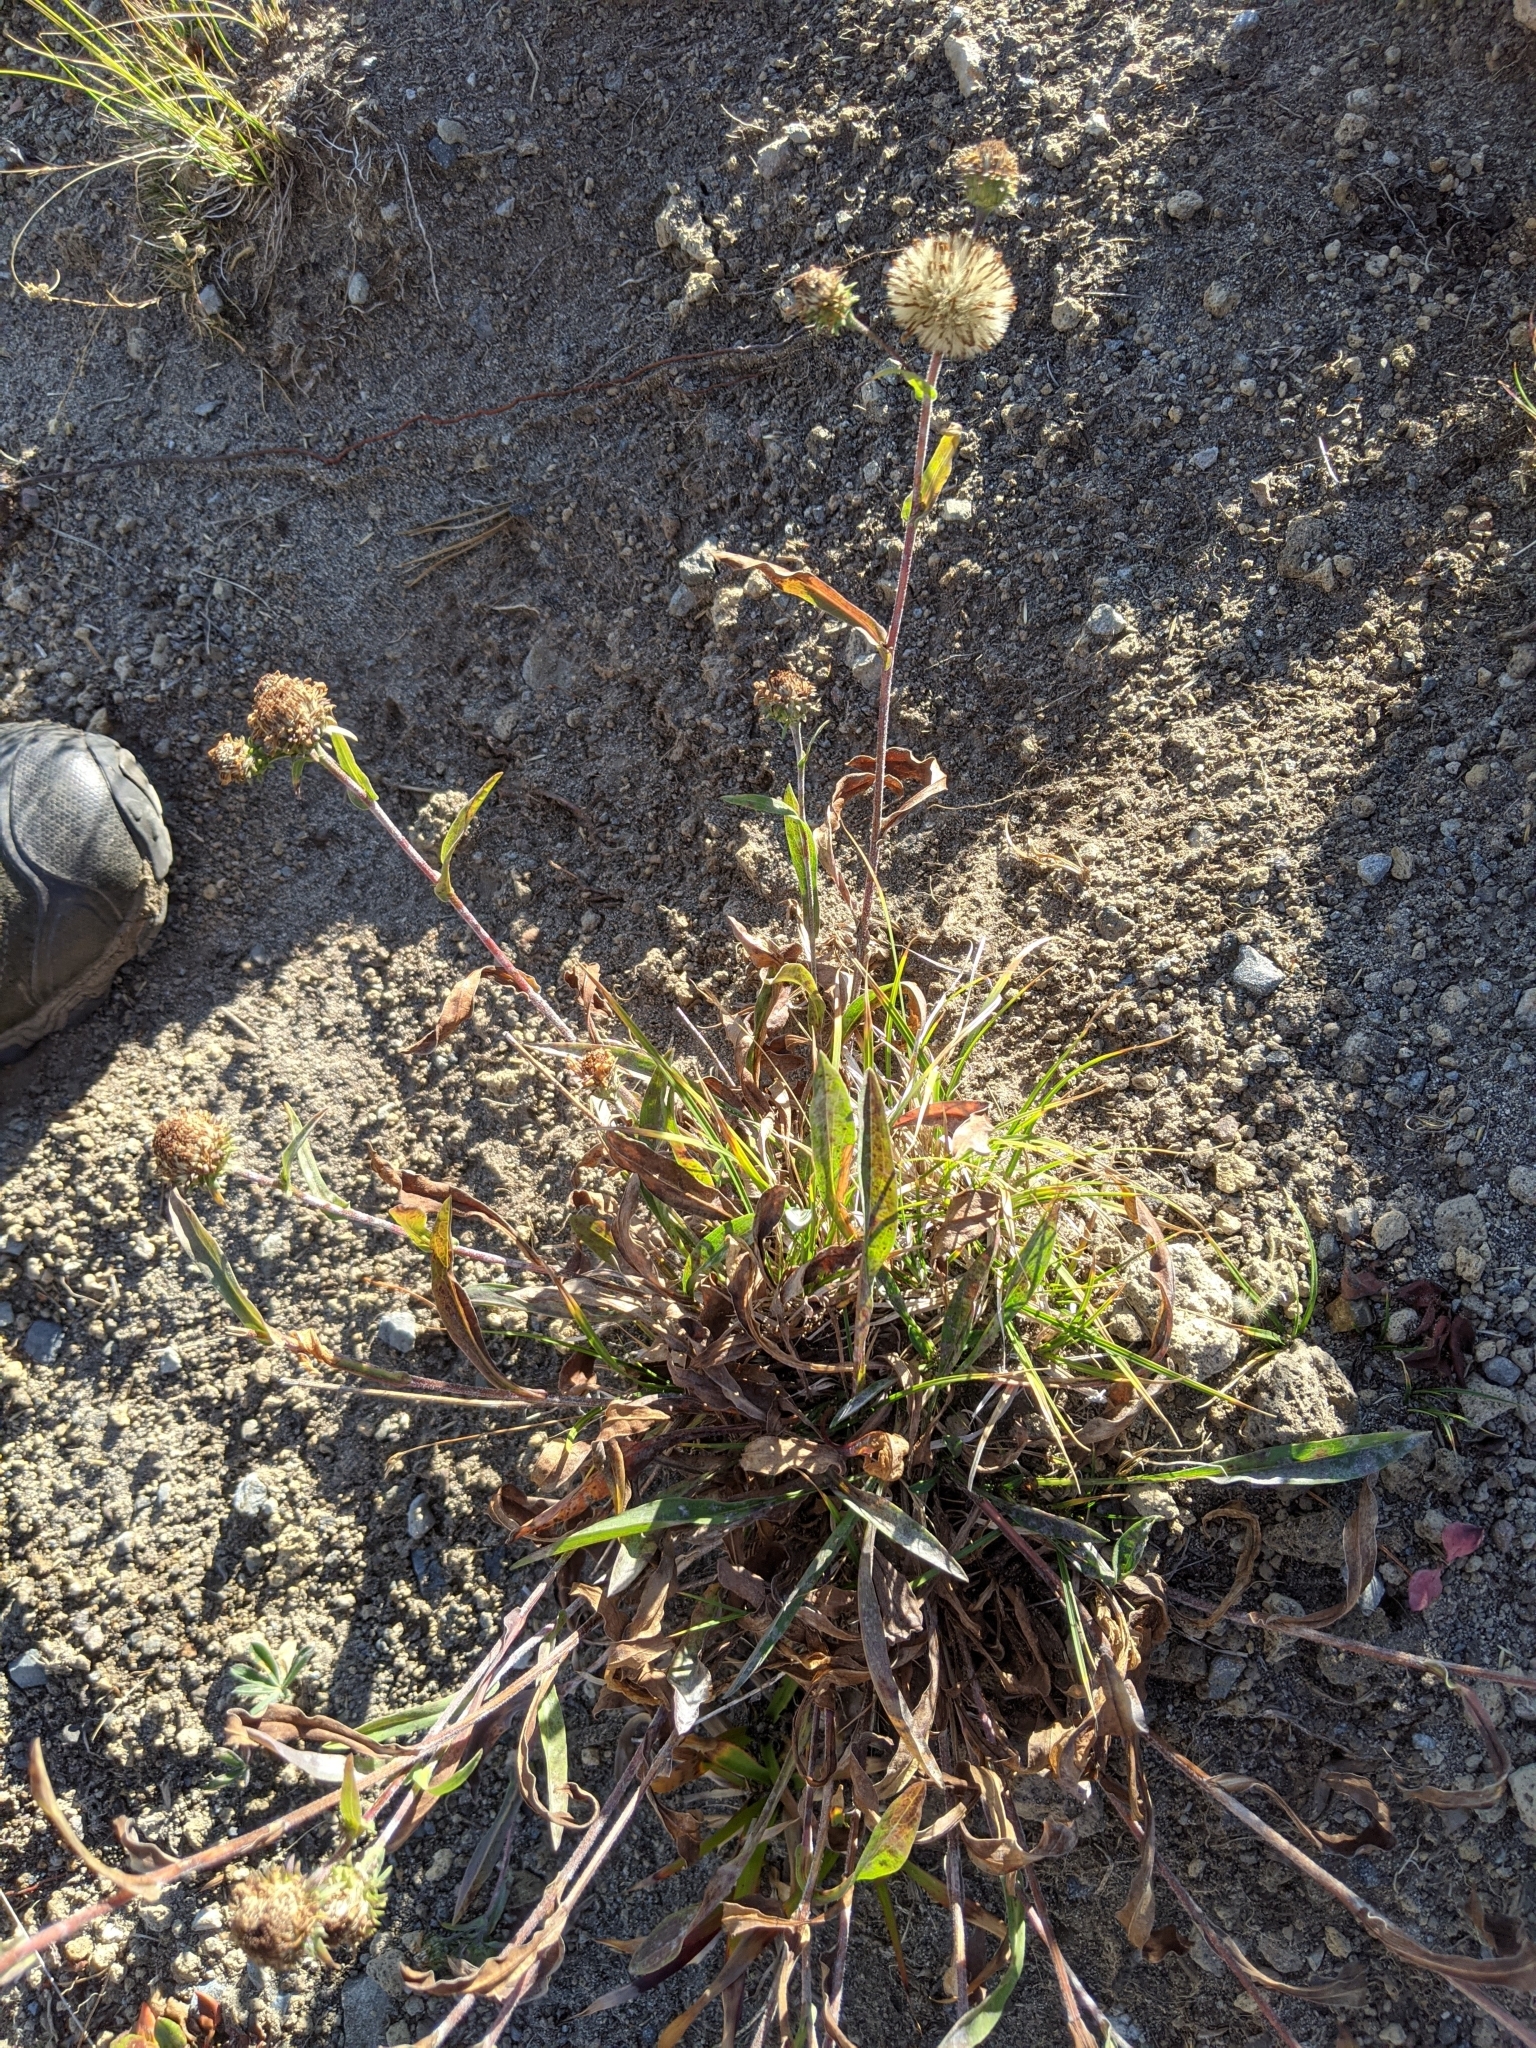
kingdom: Plantae
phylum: Tracheophyta
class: Magnoliopsida
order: Asterales
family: Asteraceae
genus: Erigeron
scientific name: Erigeron glacialis
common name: Subalpine fleabane
